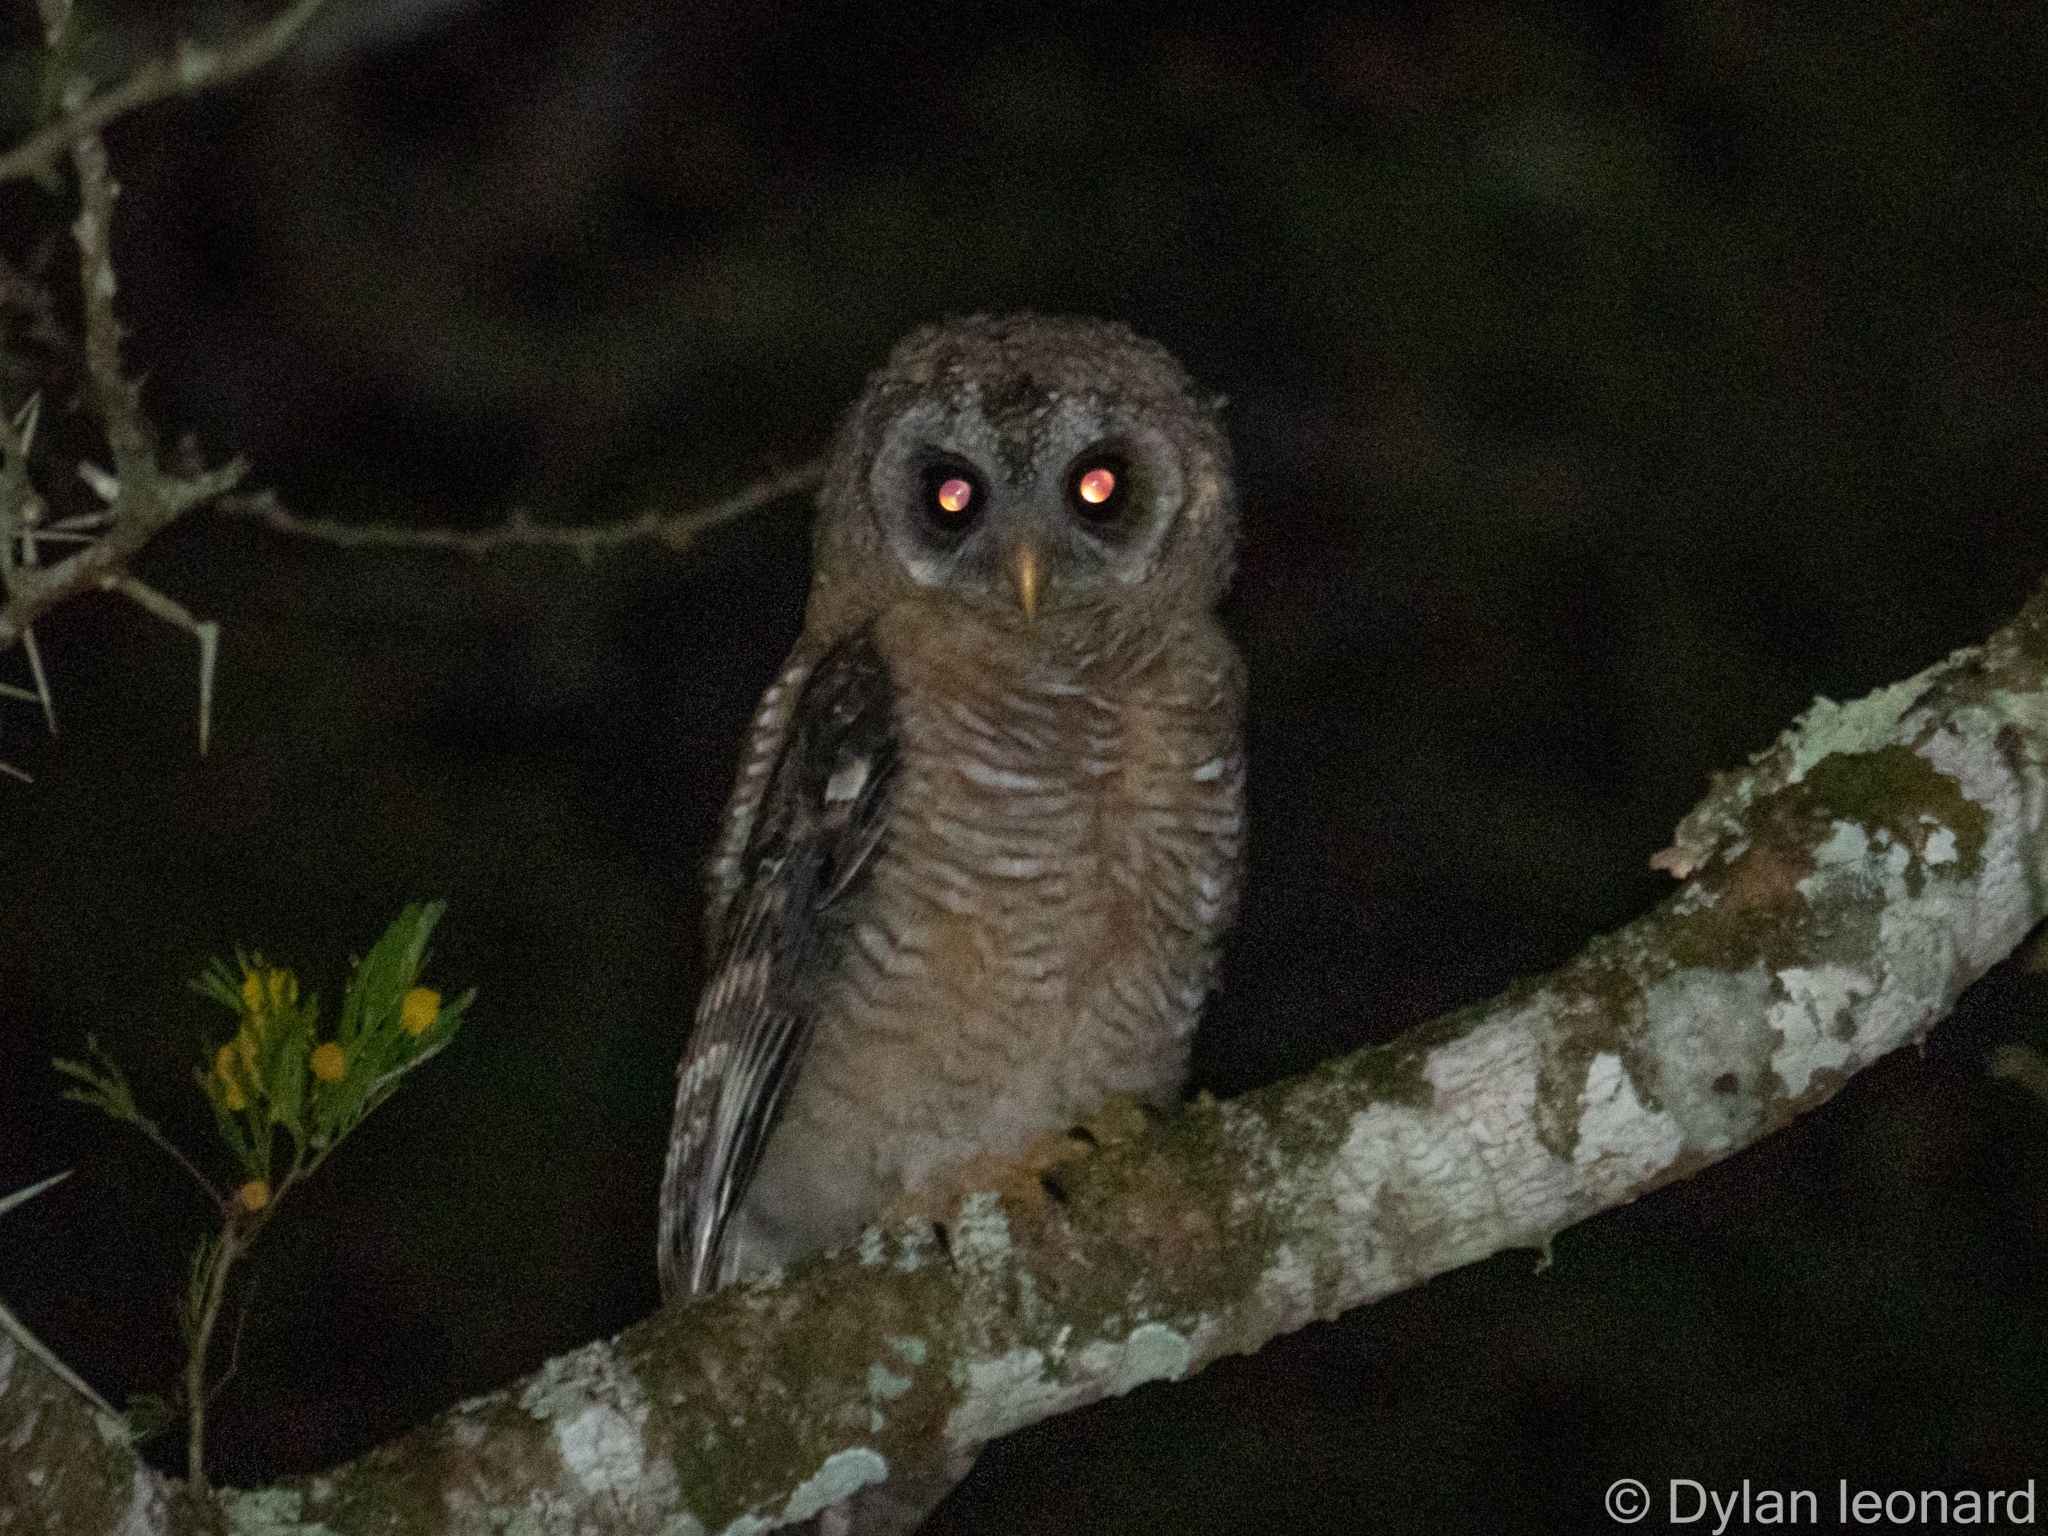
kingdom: Animalia
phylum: Chordata
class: Aves
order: Strigiformes
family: Strigidae
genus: Strix
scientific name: Strix woodfordii
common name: African wood owl
